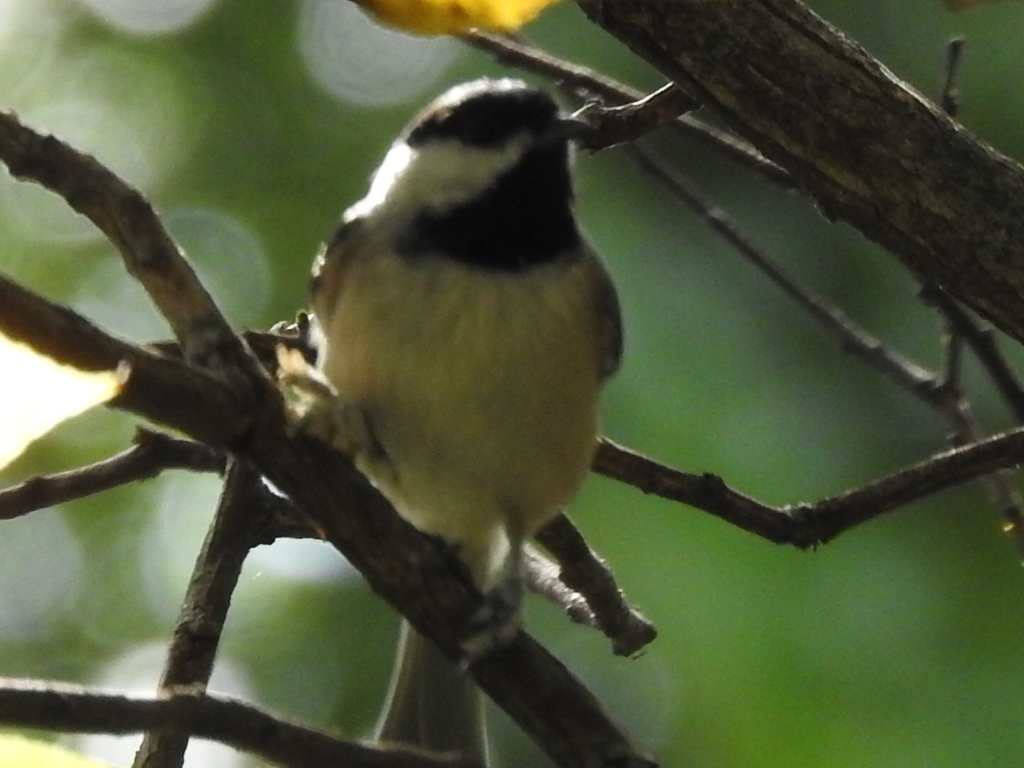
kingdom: Animalia
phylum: Chordata
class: Aves
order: Passeriformes
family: Paridae
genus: Poecile
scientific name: Poecile carolinensis
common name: Carolina chickadee
